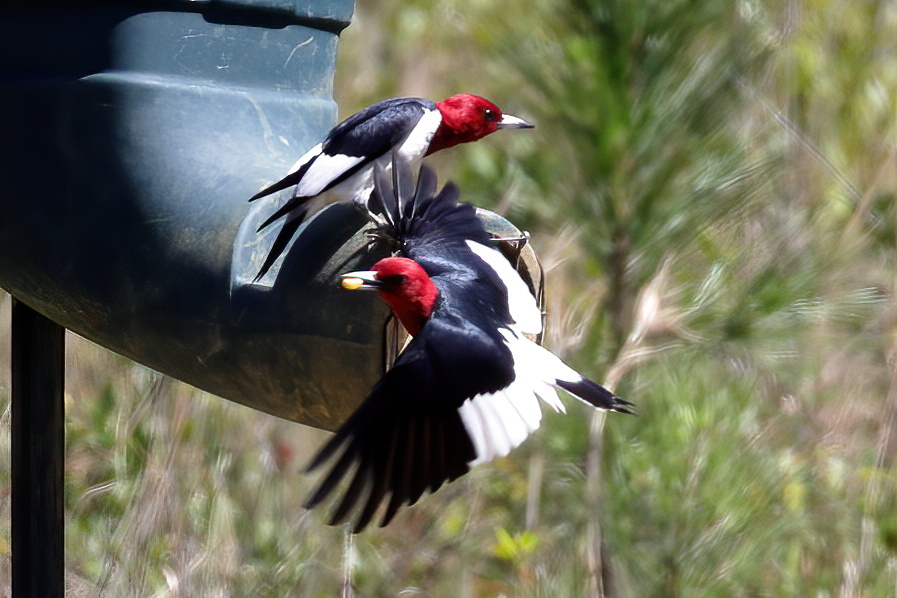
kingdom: Animalia
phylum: Chordata
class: Aves
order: Piciformes
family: Picidae
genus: Melanerpes
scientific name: Melanerpes erythrocephalus
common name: Red-headed woodpecker
